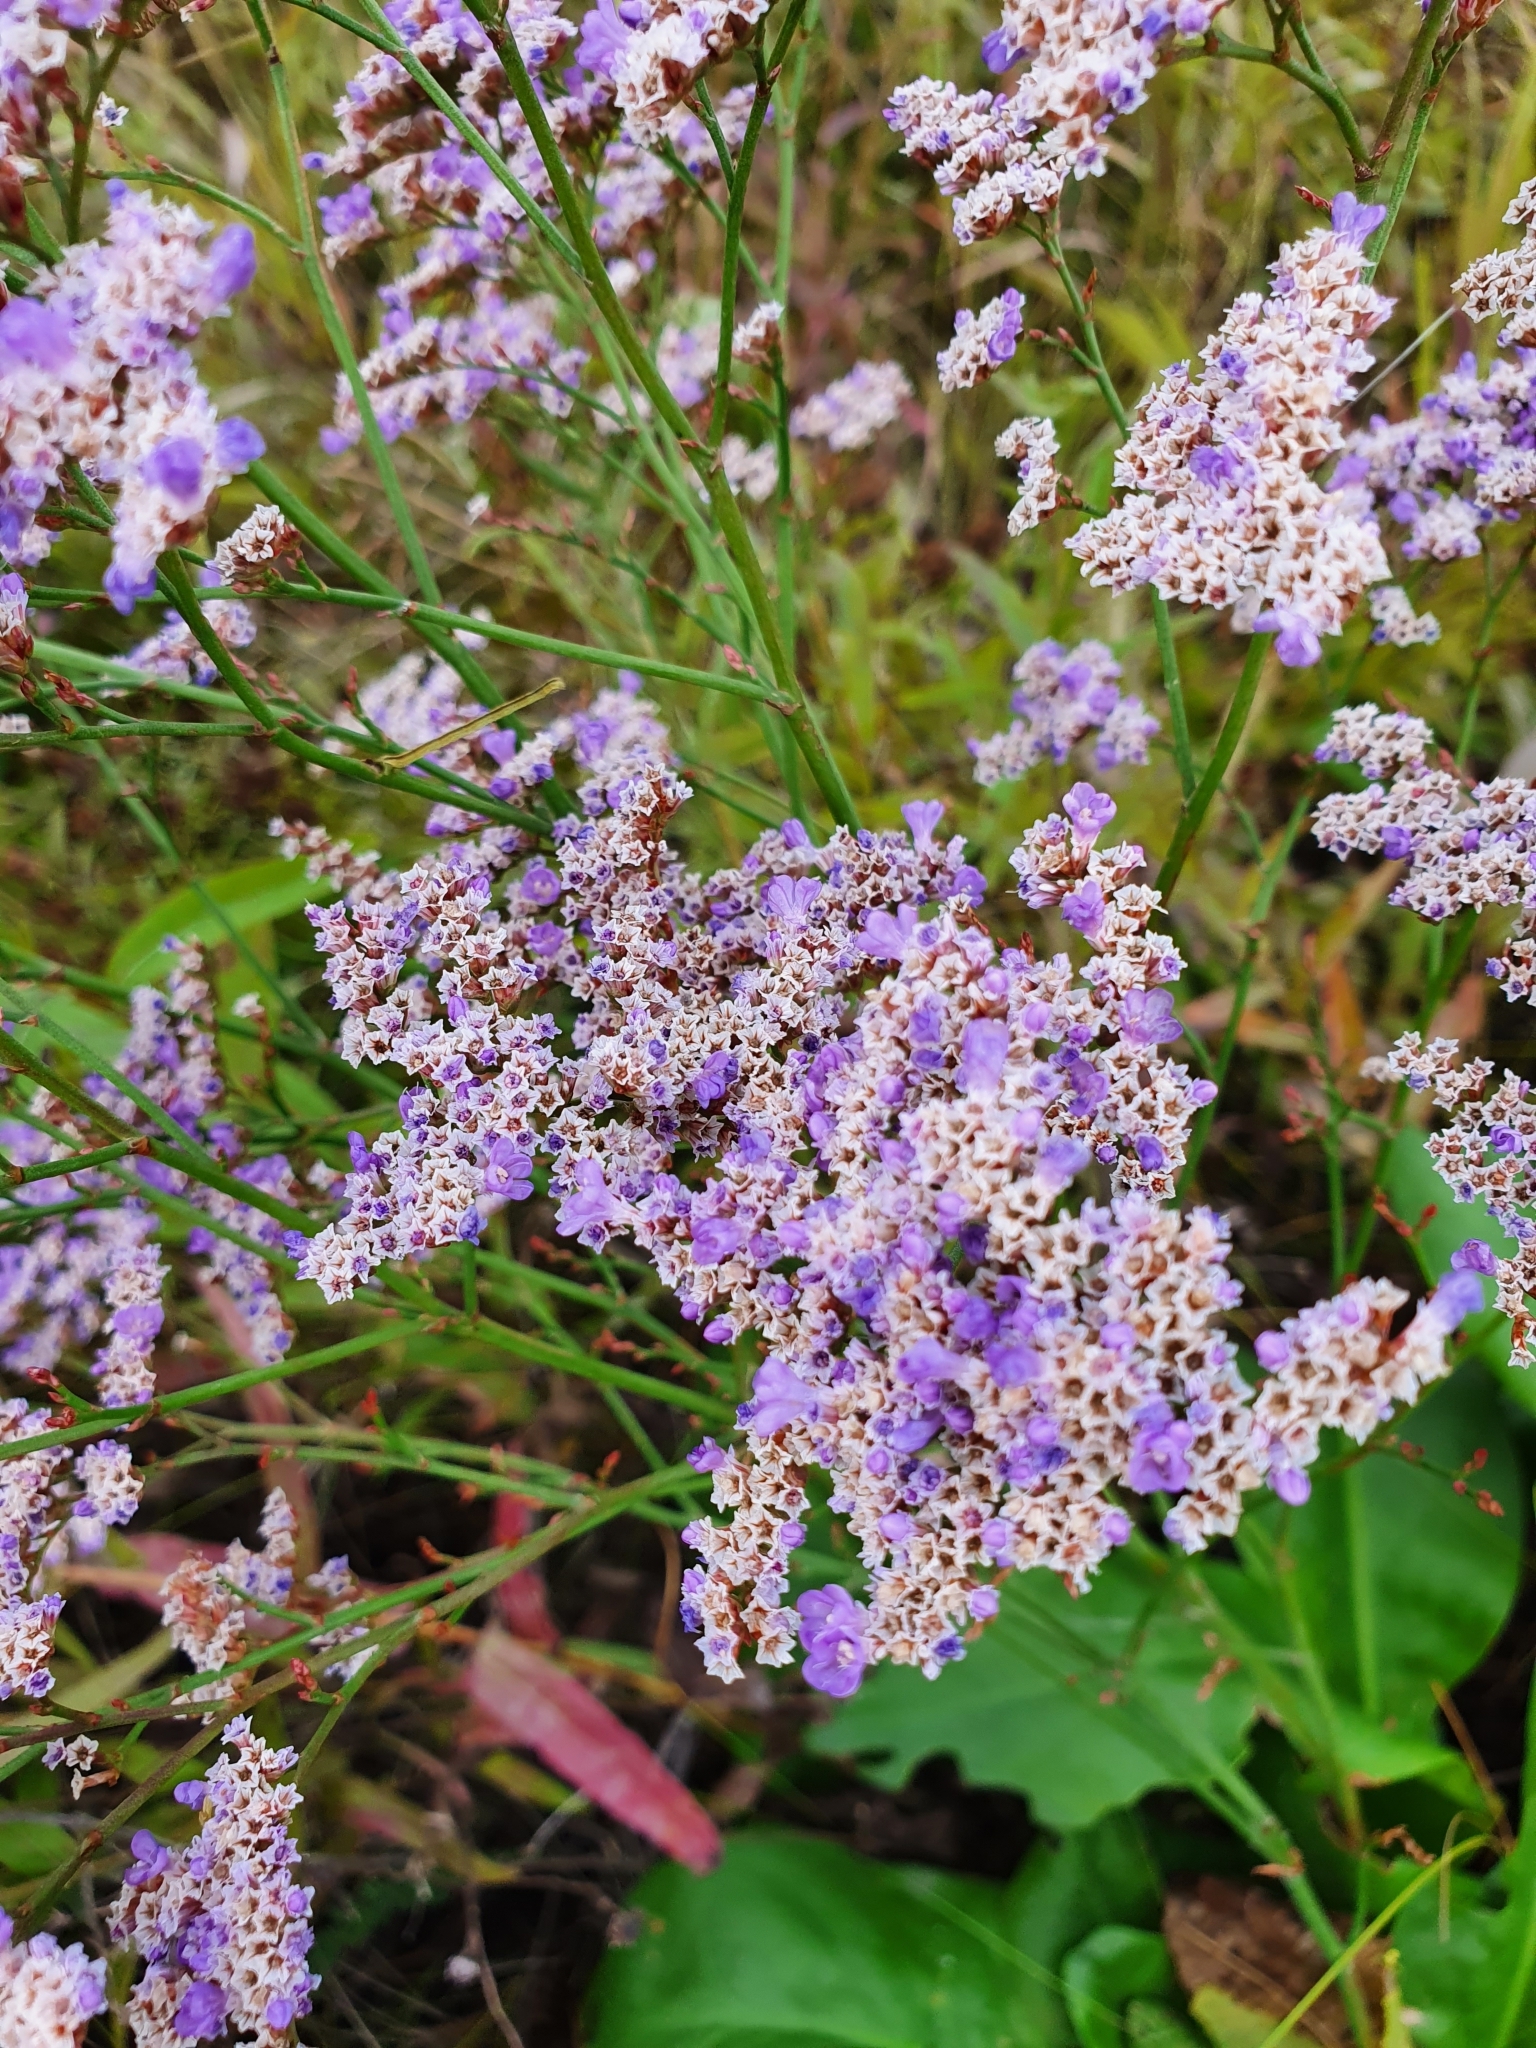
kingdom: Plantae
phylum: Tracheophyta
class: Magnoliopsida
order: Caryophyllales
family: Plumbaginaceae
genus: Limonium
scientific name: Limonium gmelini
